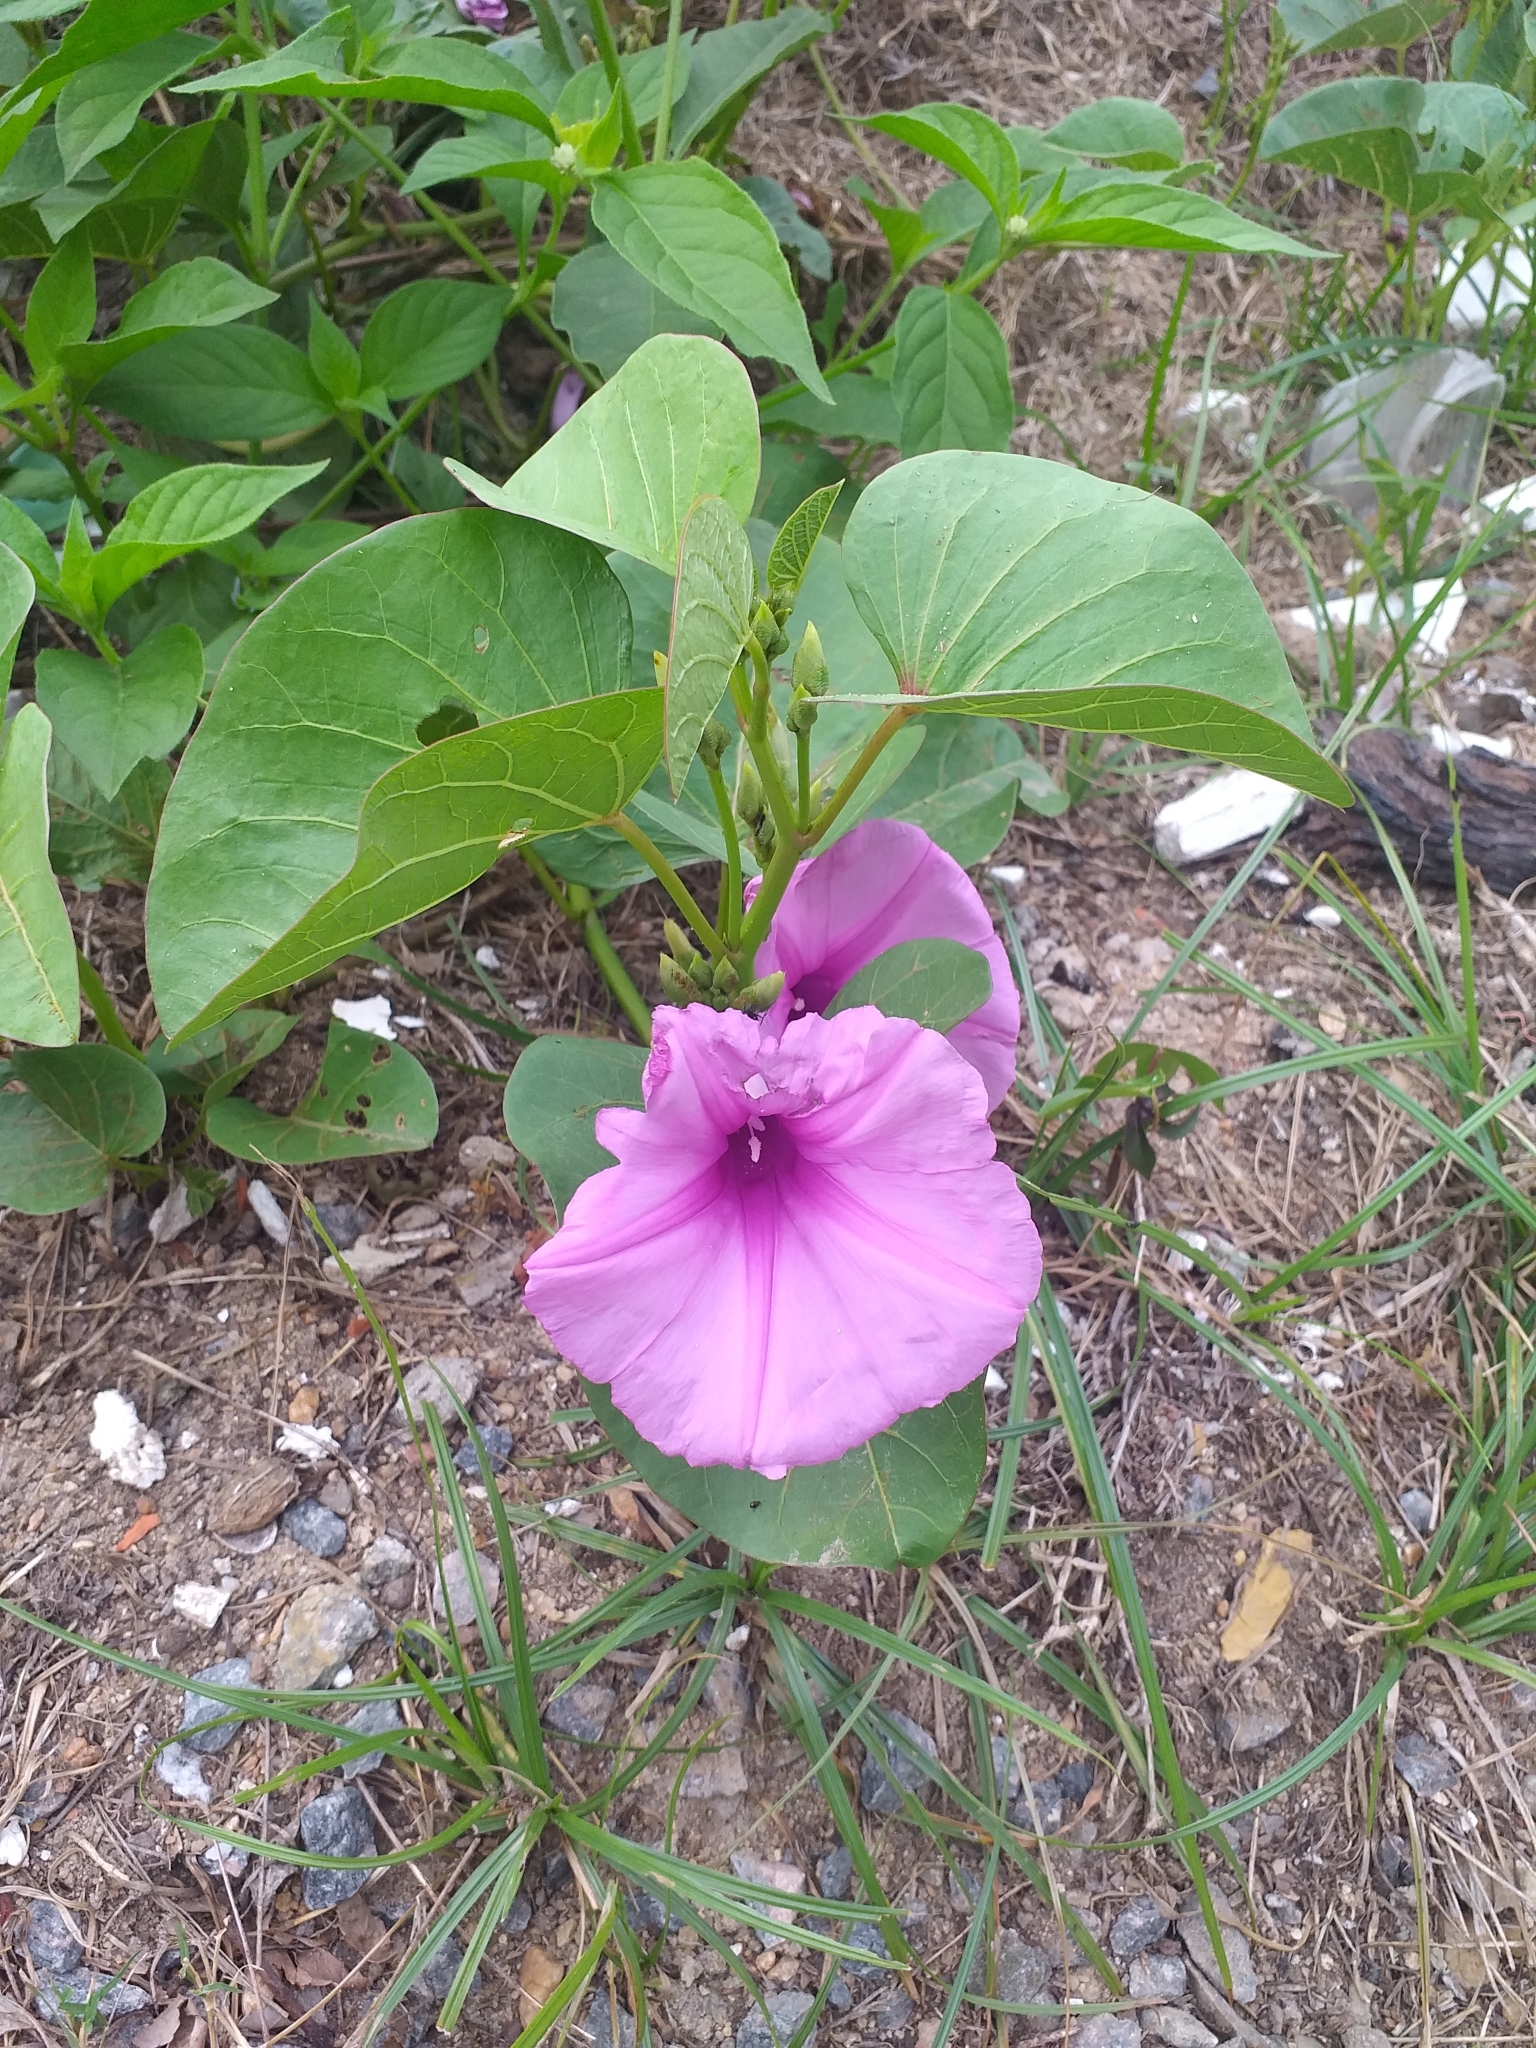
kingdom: Plantae
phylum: Tracheophyta
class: Magnoliopsida
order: Solanales
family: Convolvulaceae
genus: Ipomoea
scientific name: Ipomoea asarifolia
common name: Ginger-leaf morning-glory
